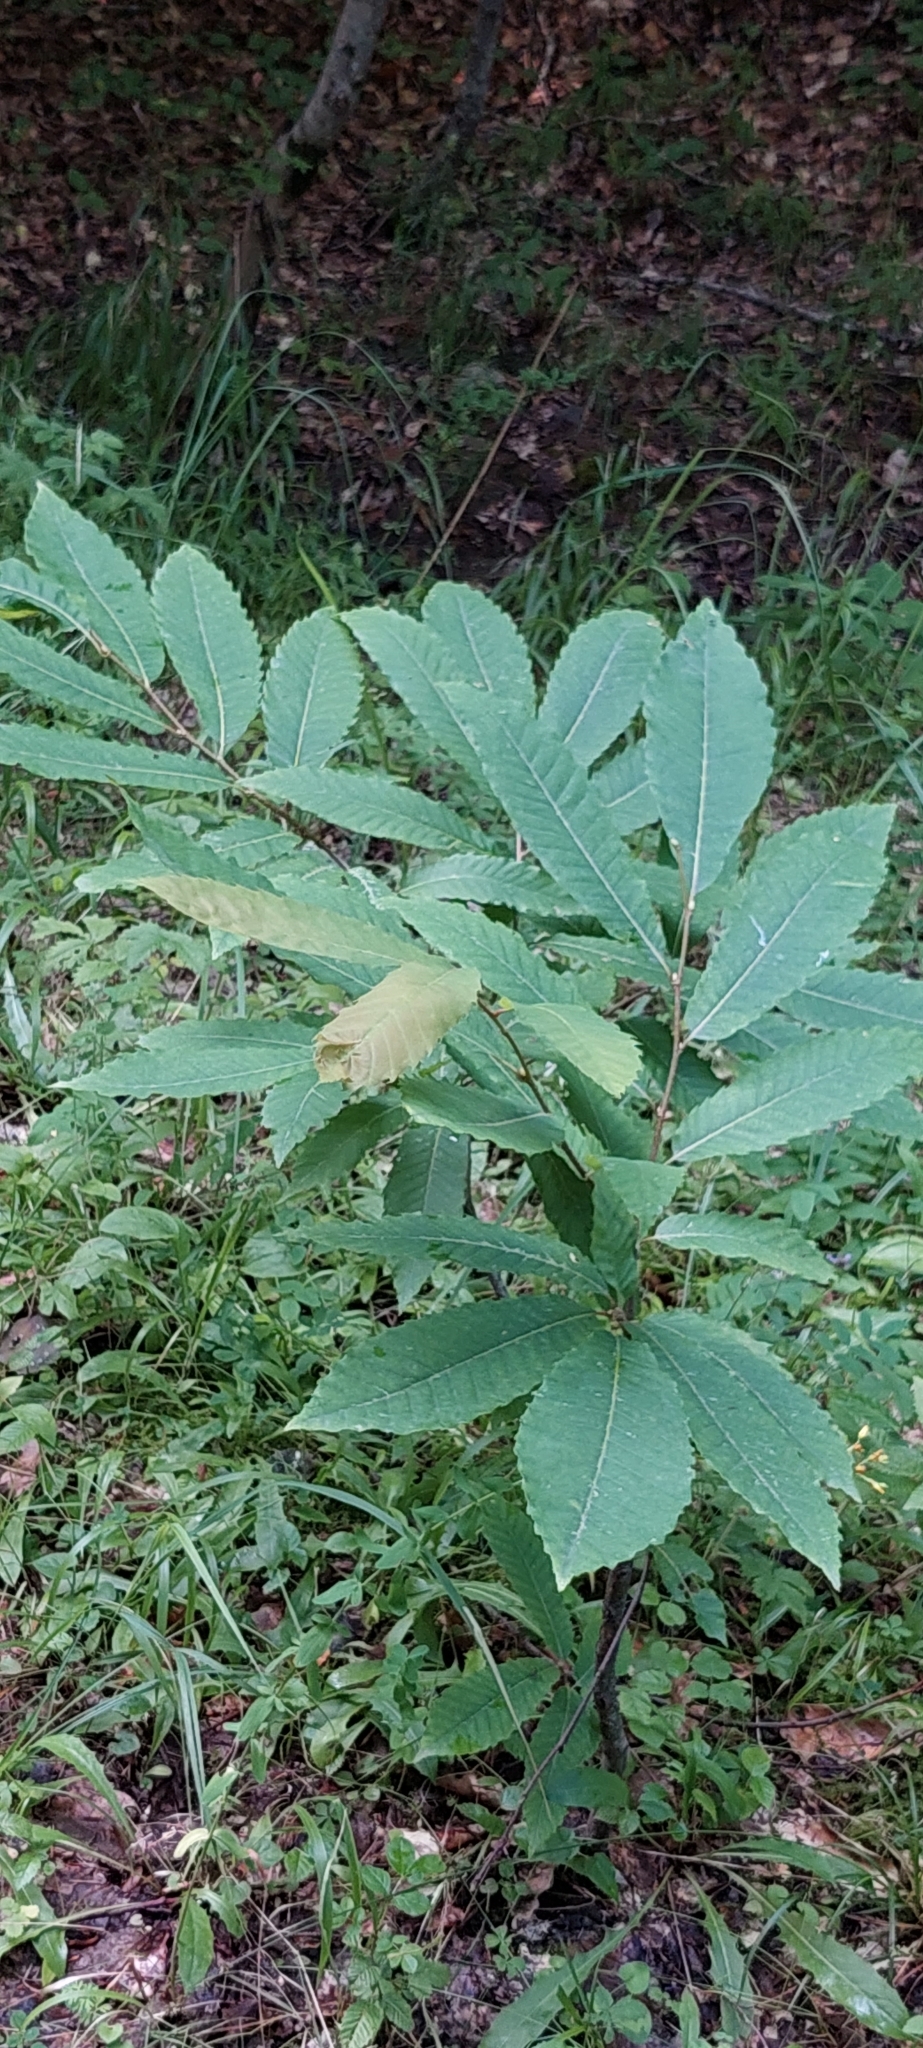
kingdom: Plantae
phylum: Tracheophyta
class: Magnoliopsida
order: Fagales
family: Fagaceae
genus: Castanea
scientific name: Castanea sativa
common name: Sweet chestnut
